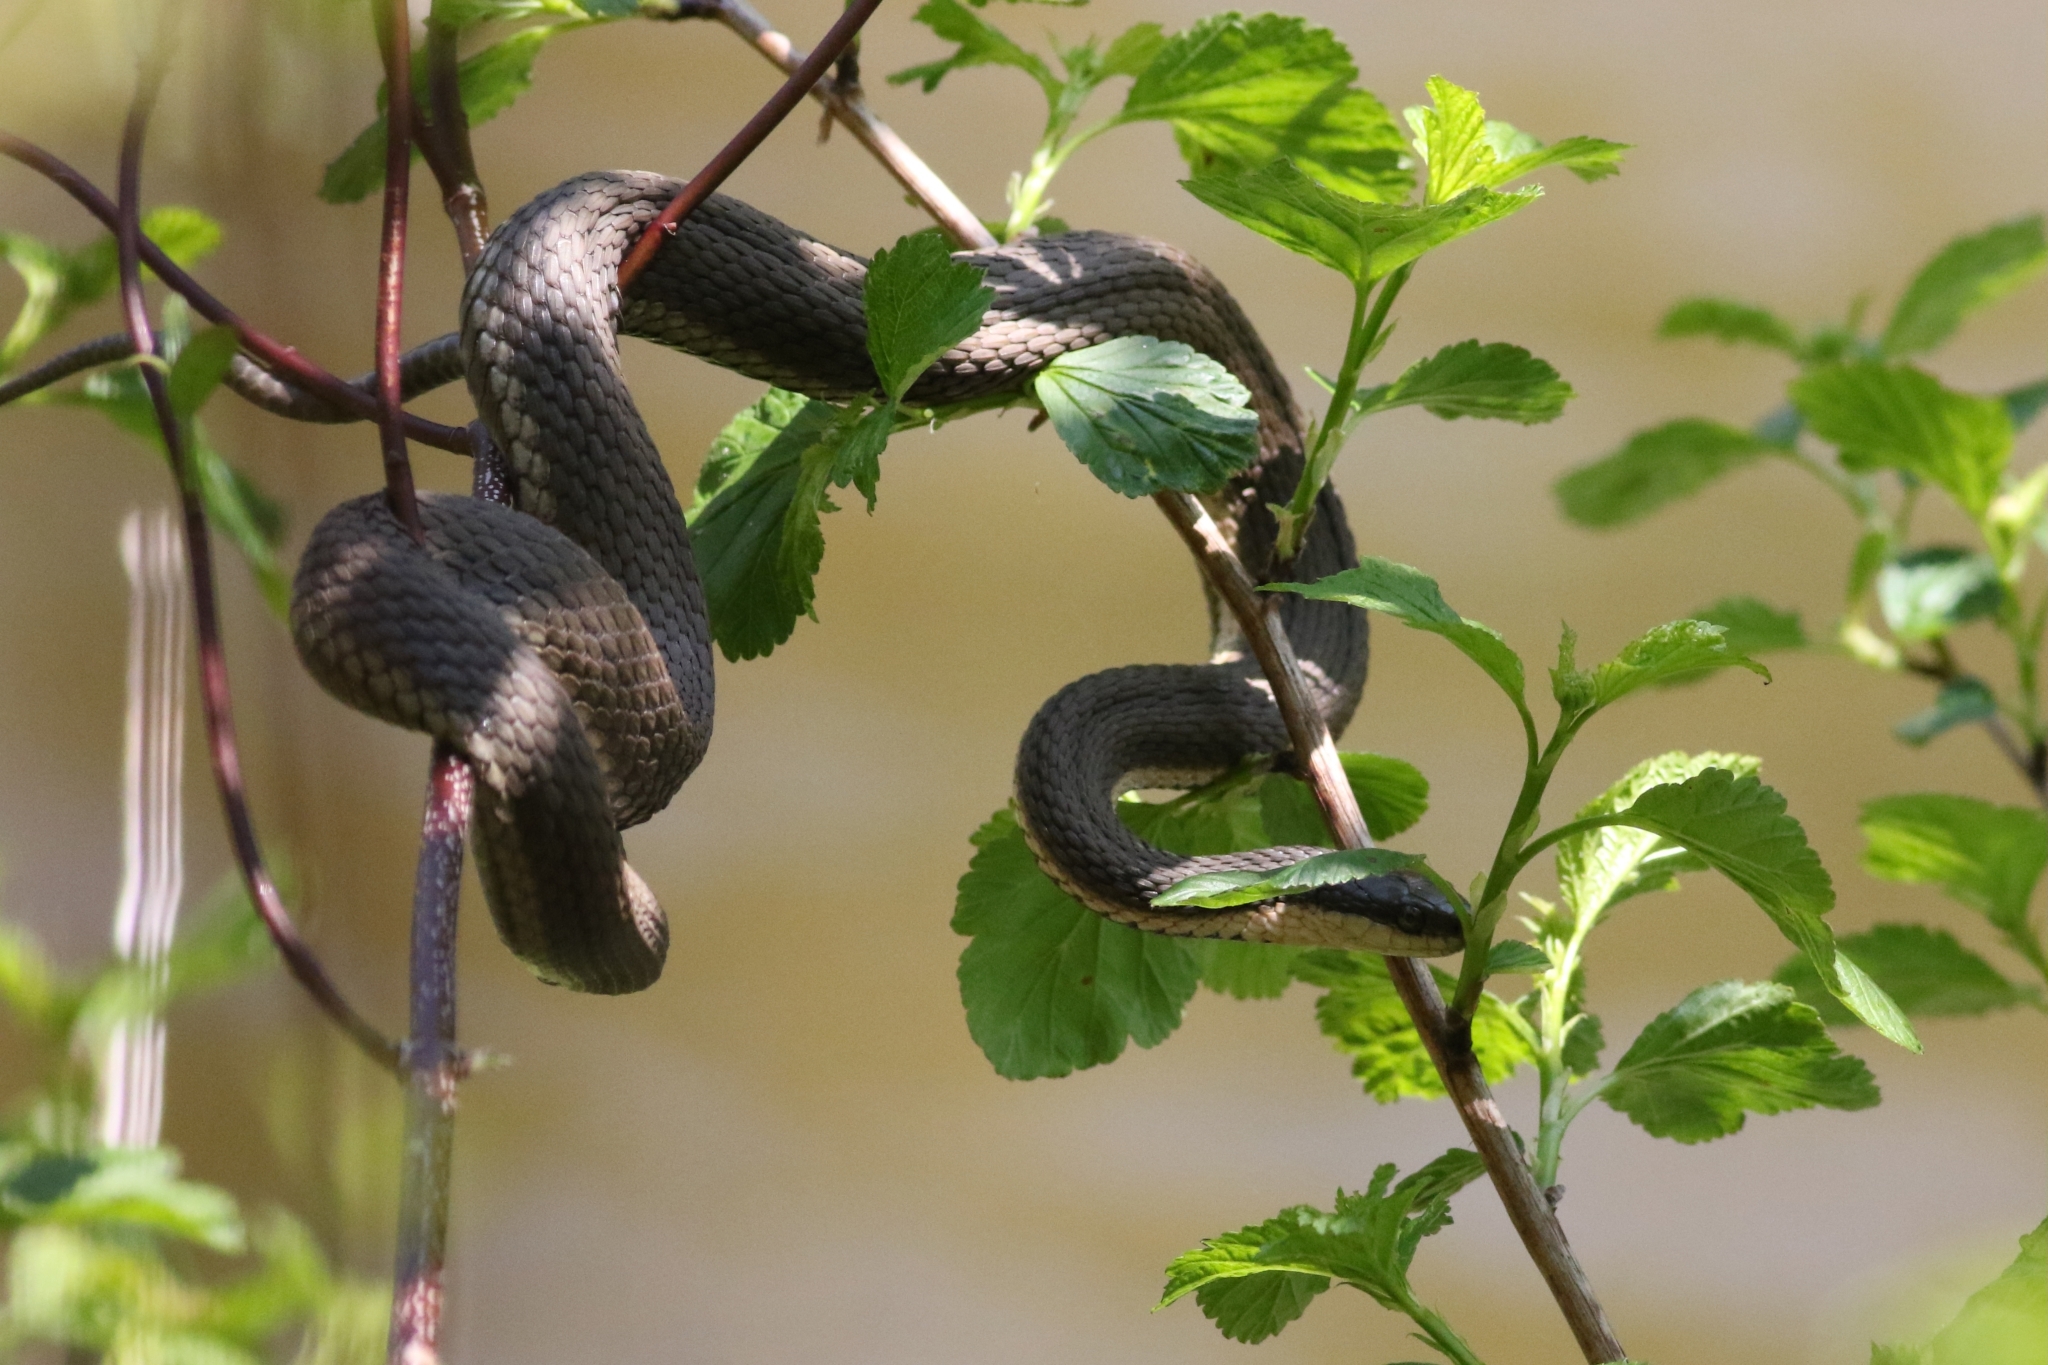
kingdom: Animalia
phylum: Chordata
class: Squamata
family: Colubridae
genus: Regina
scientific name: Regina septemvittata
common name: Queen snake
